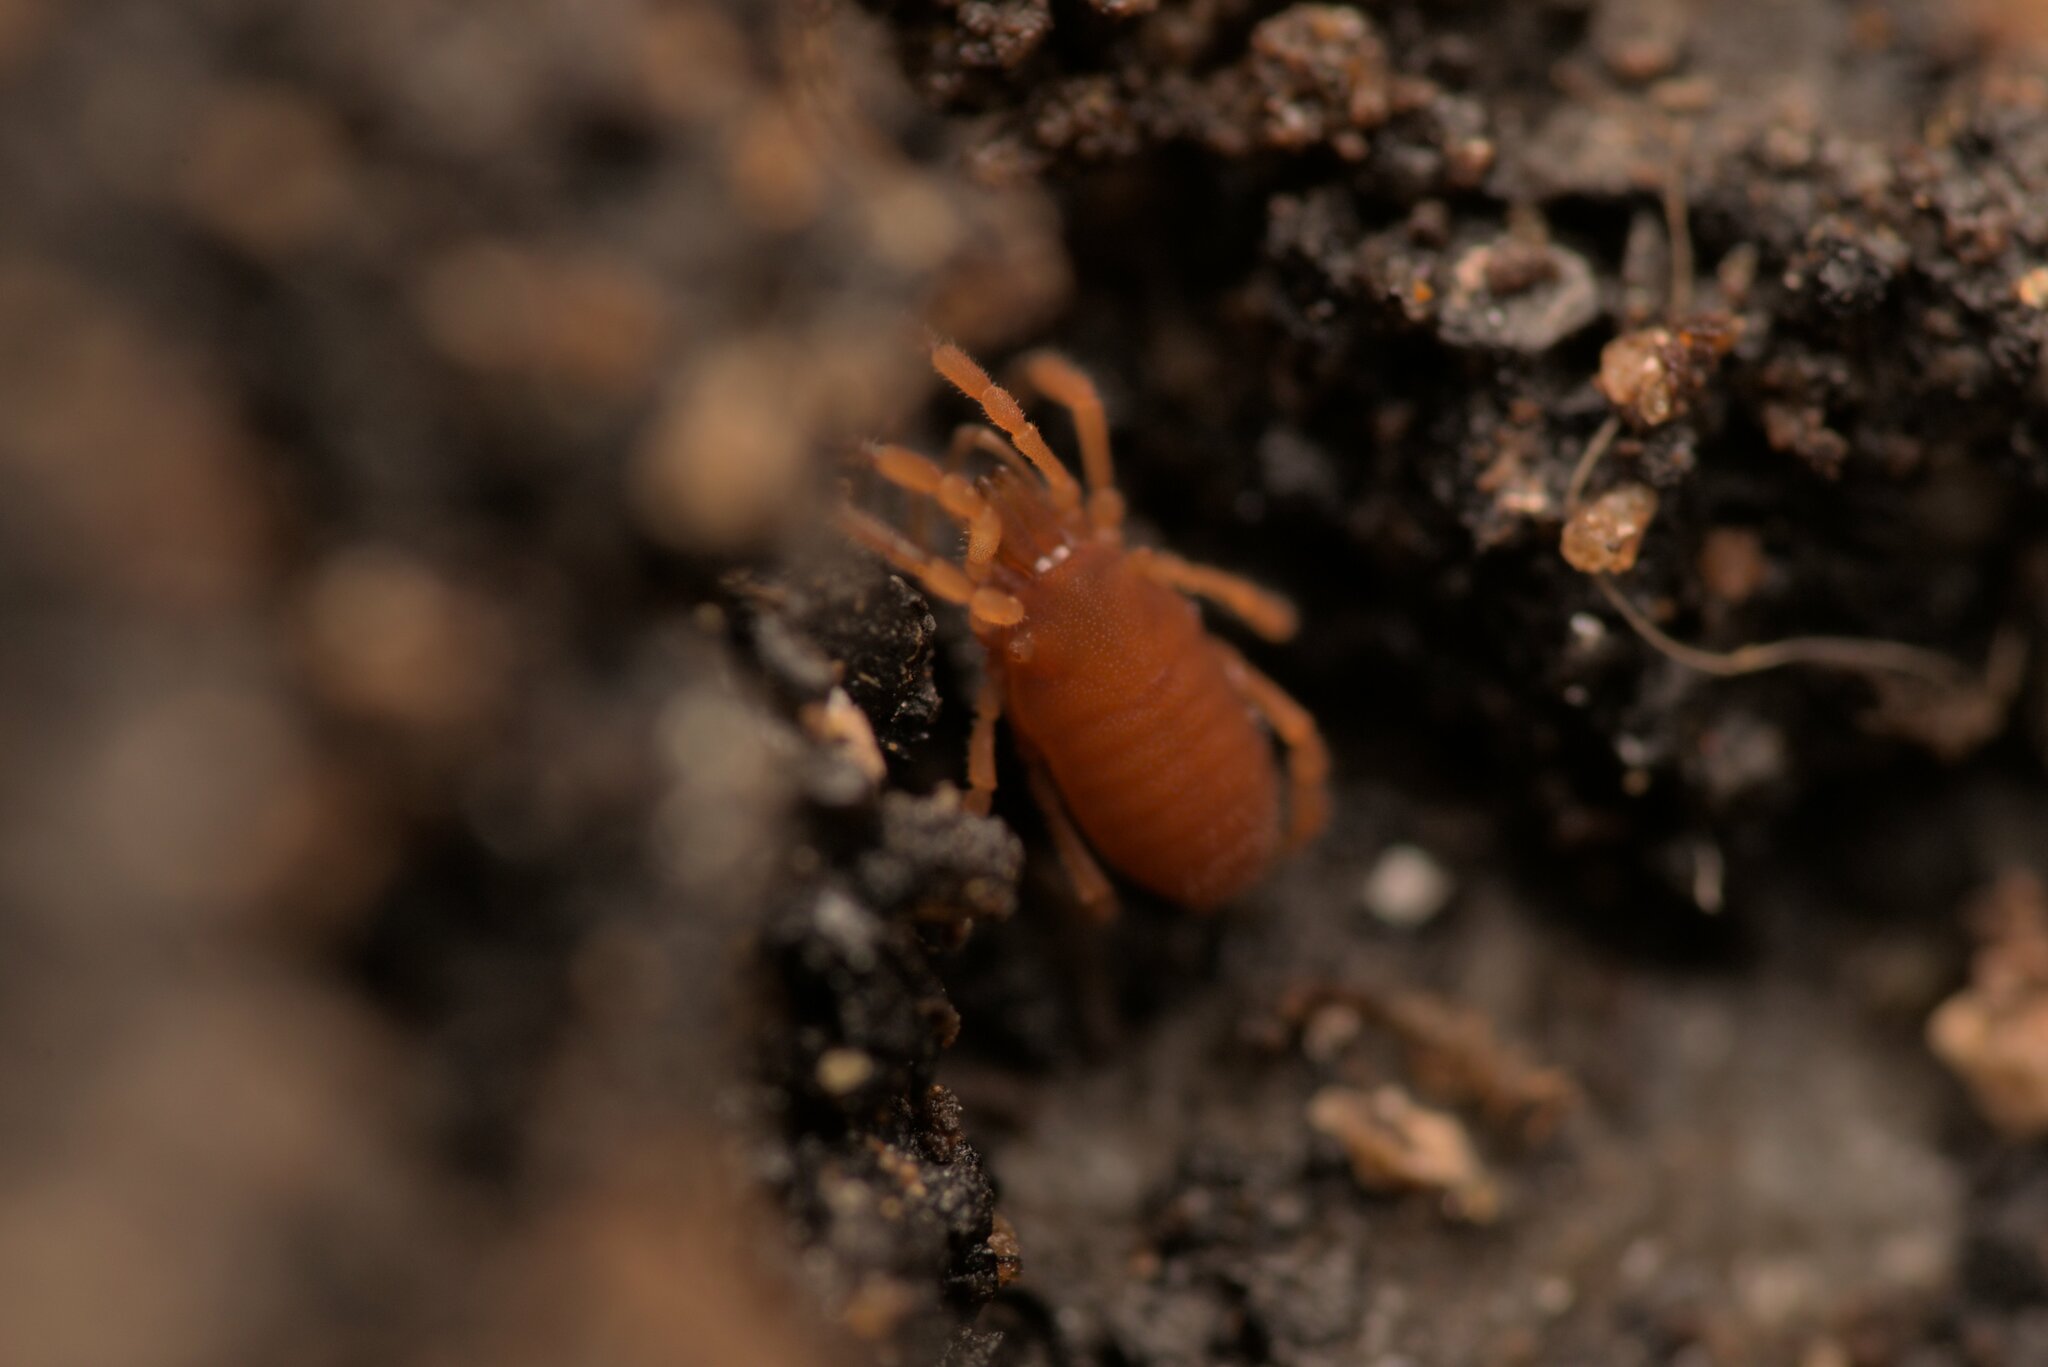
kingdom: Animalia
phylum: Arthropoda
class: Arachnida
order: Opiliones
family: Sironidae
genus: Siro
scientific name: Siro rubens
